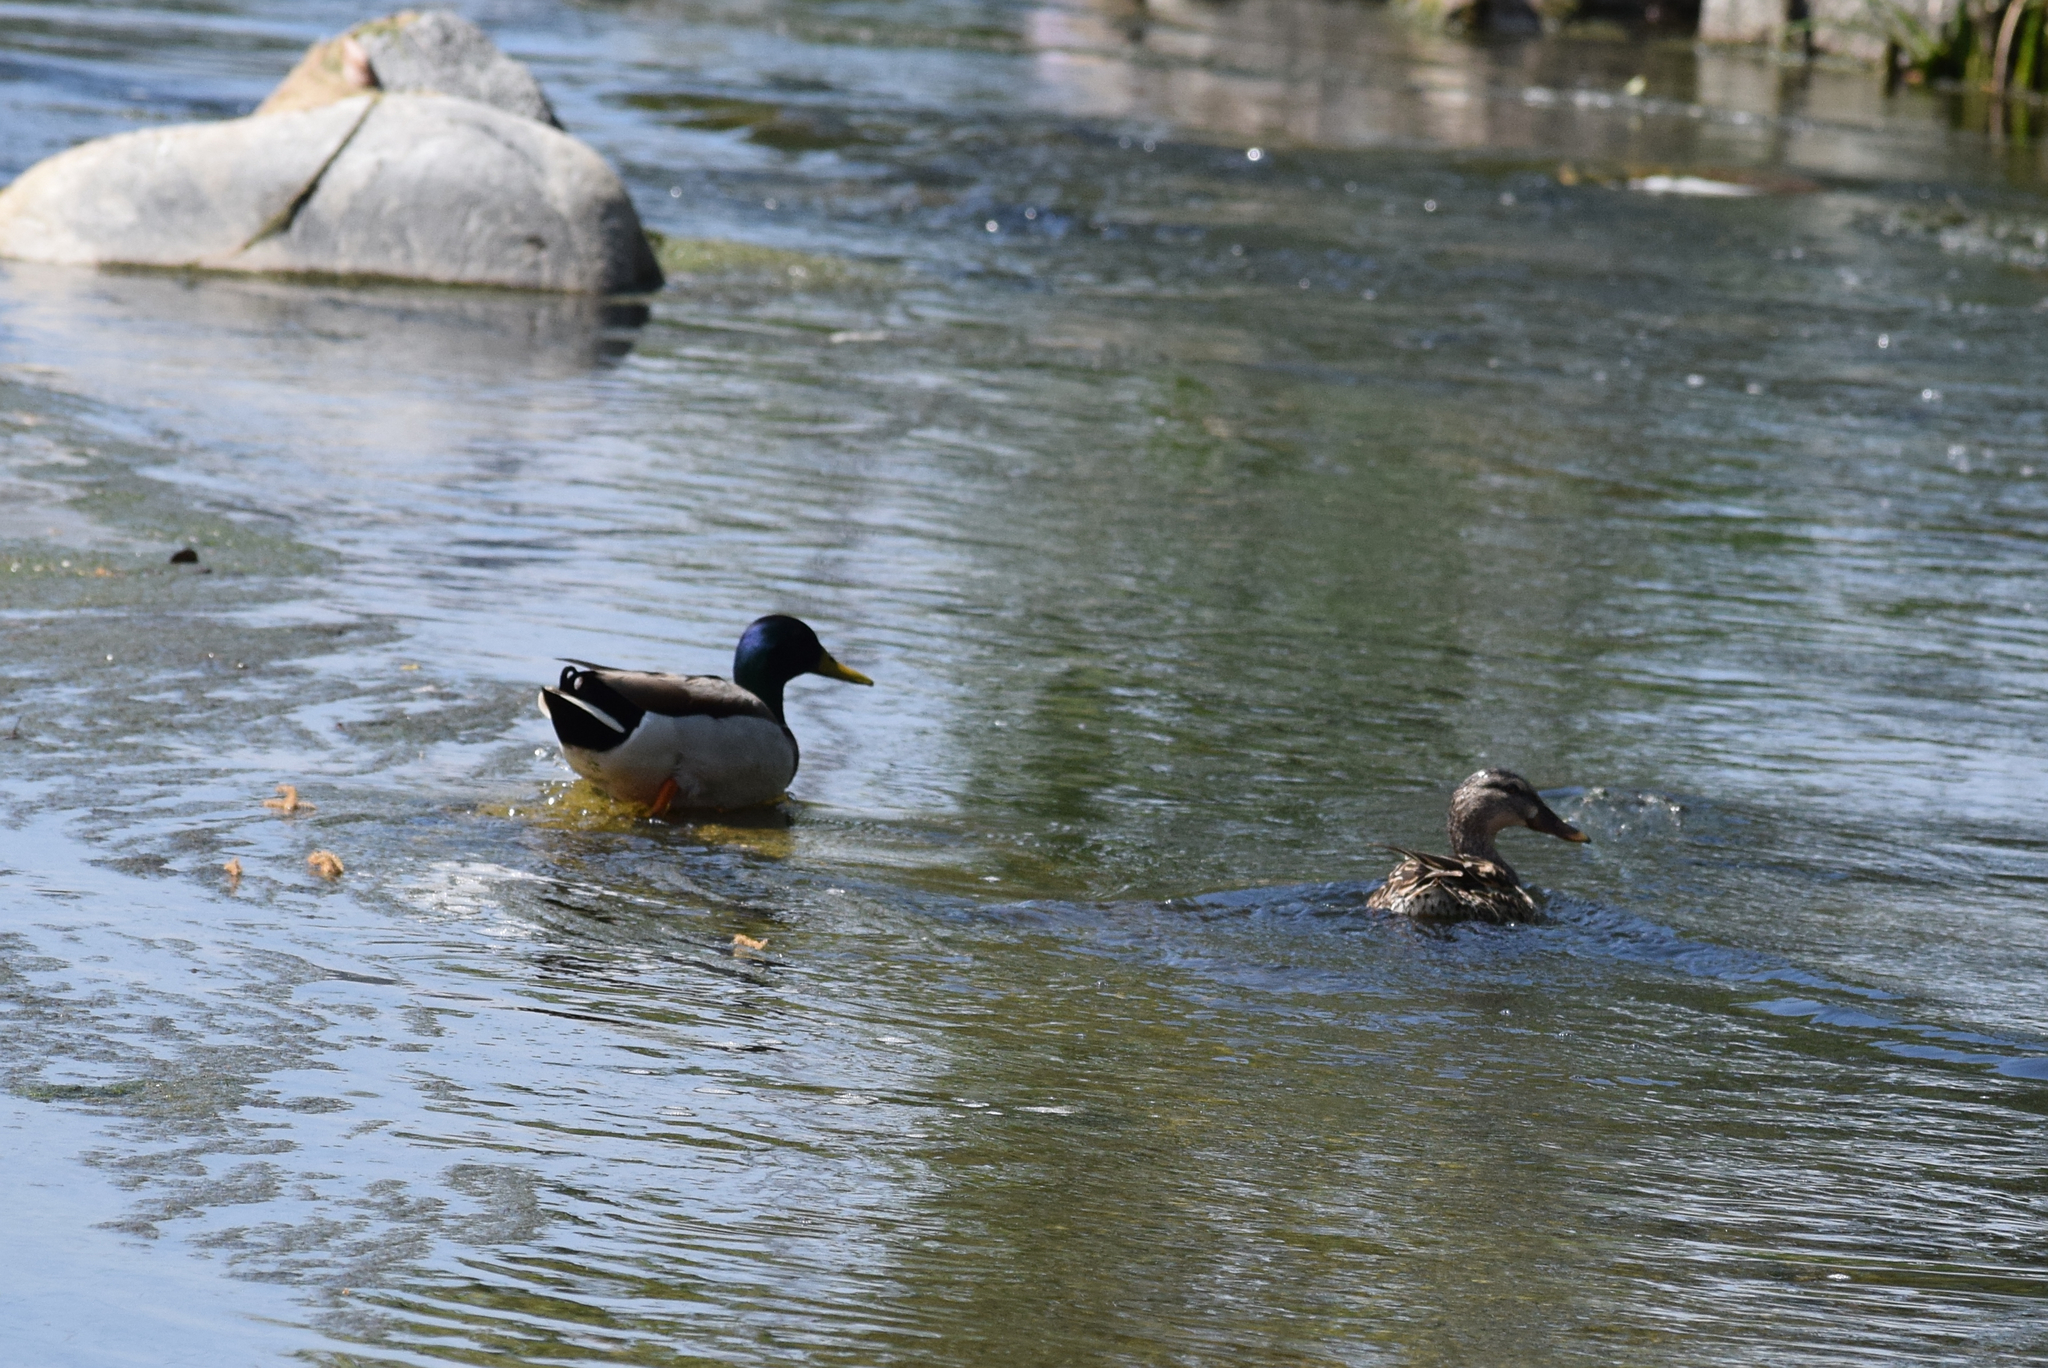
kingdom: Animalia
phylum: Chordata
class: Aves
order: Anseriformes
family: Anatidae
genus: Anas
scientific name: Anas platyrhynchos
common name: Mallard
